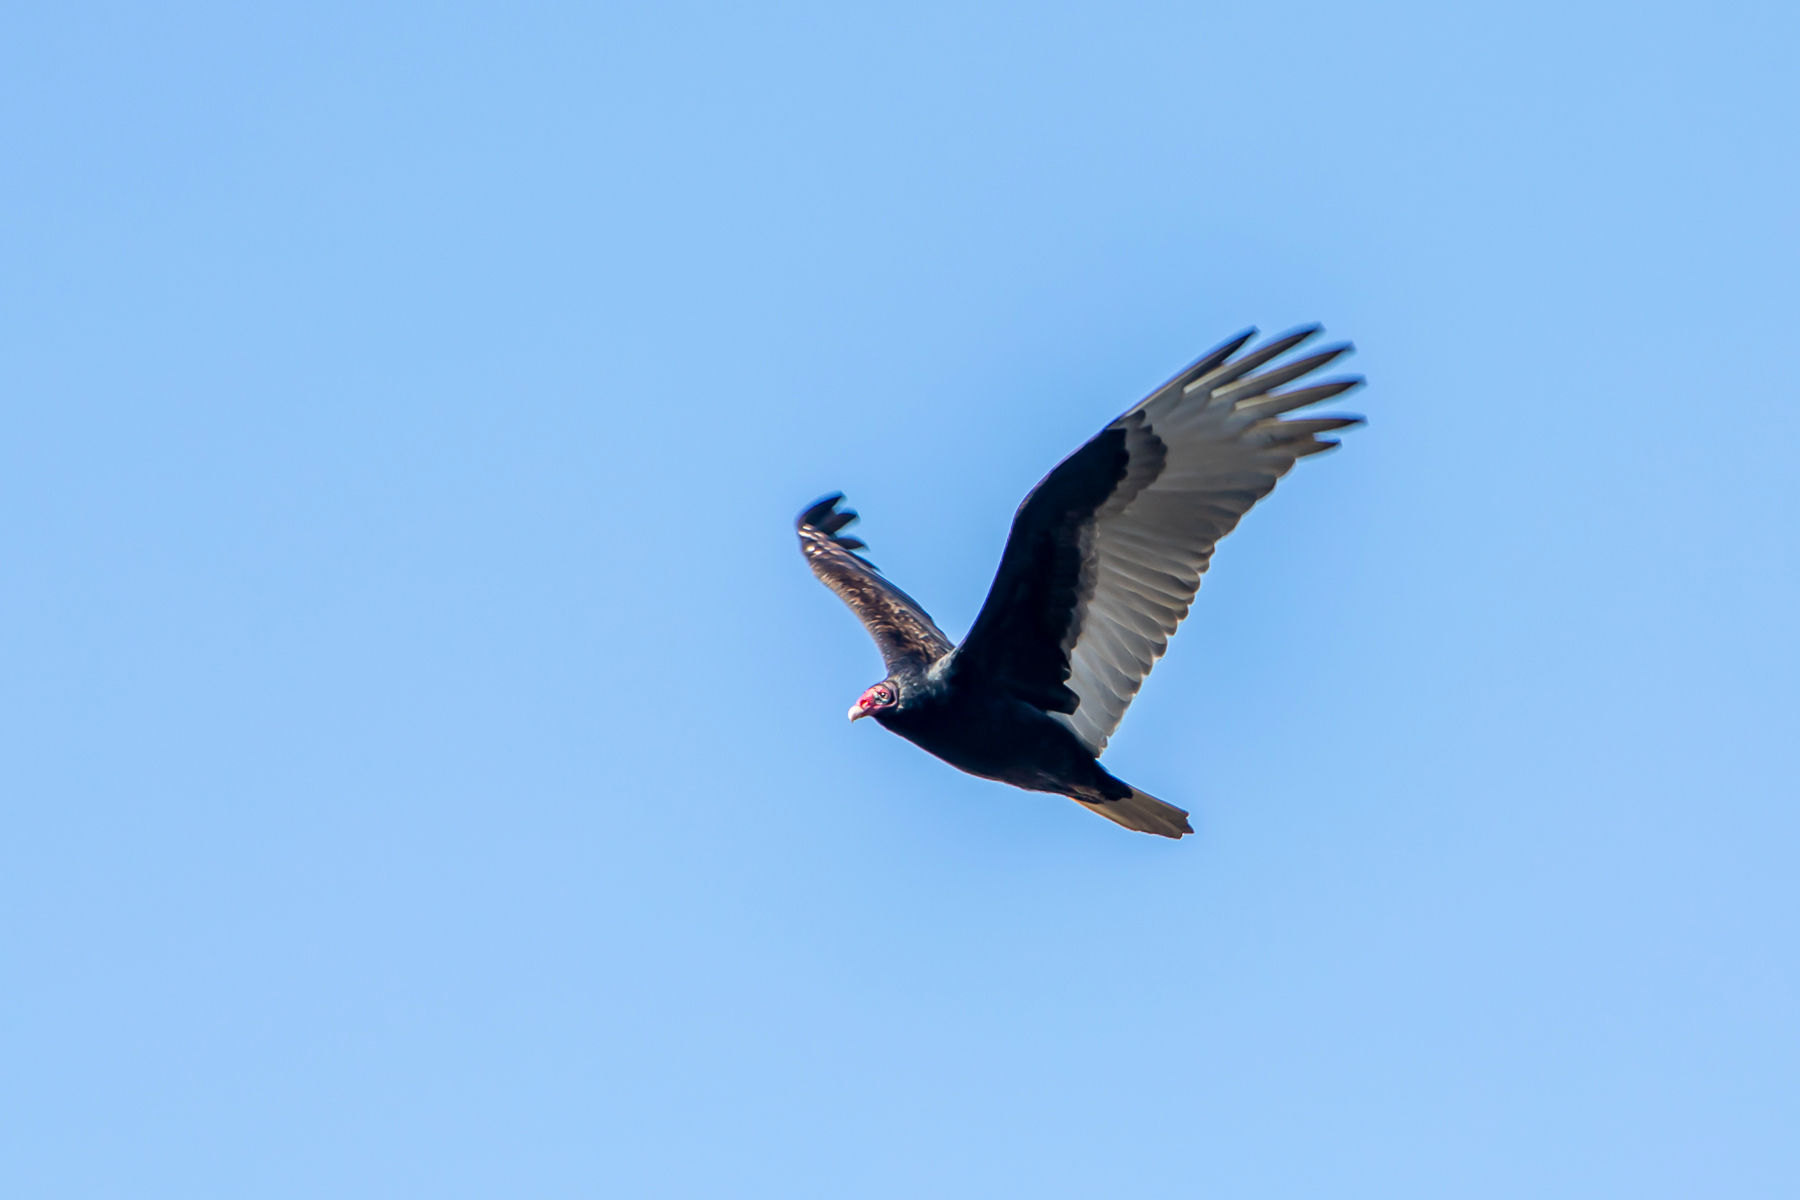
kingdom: Animalia
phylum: Chordata
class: Aves
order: Accipitriformes
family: Cathartidae
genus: Cathartes
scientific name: Cathartes aura
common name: Turkey vulture
